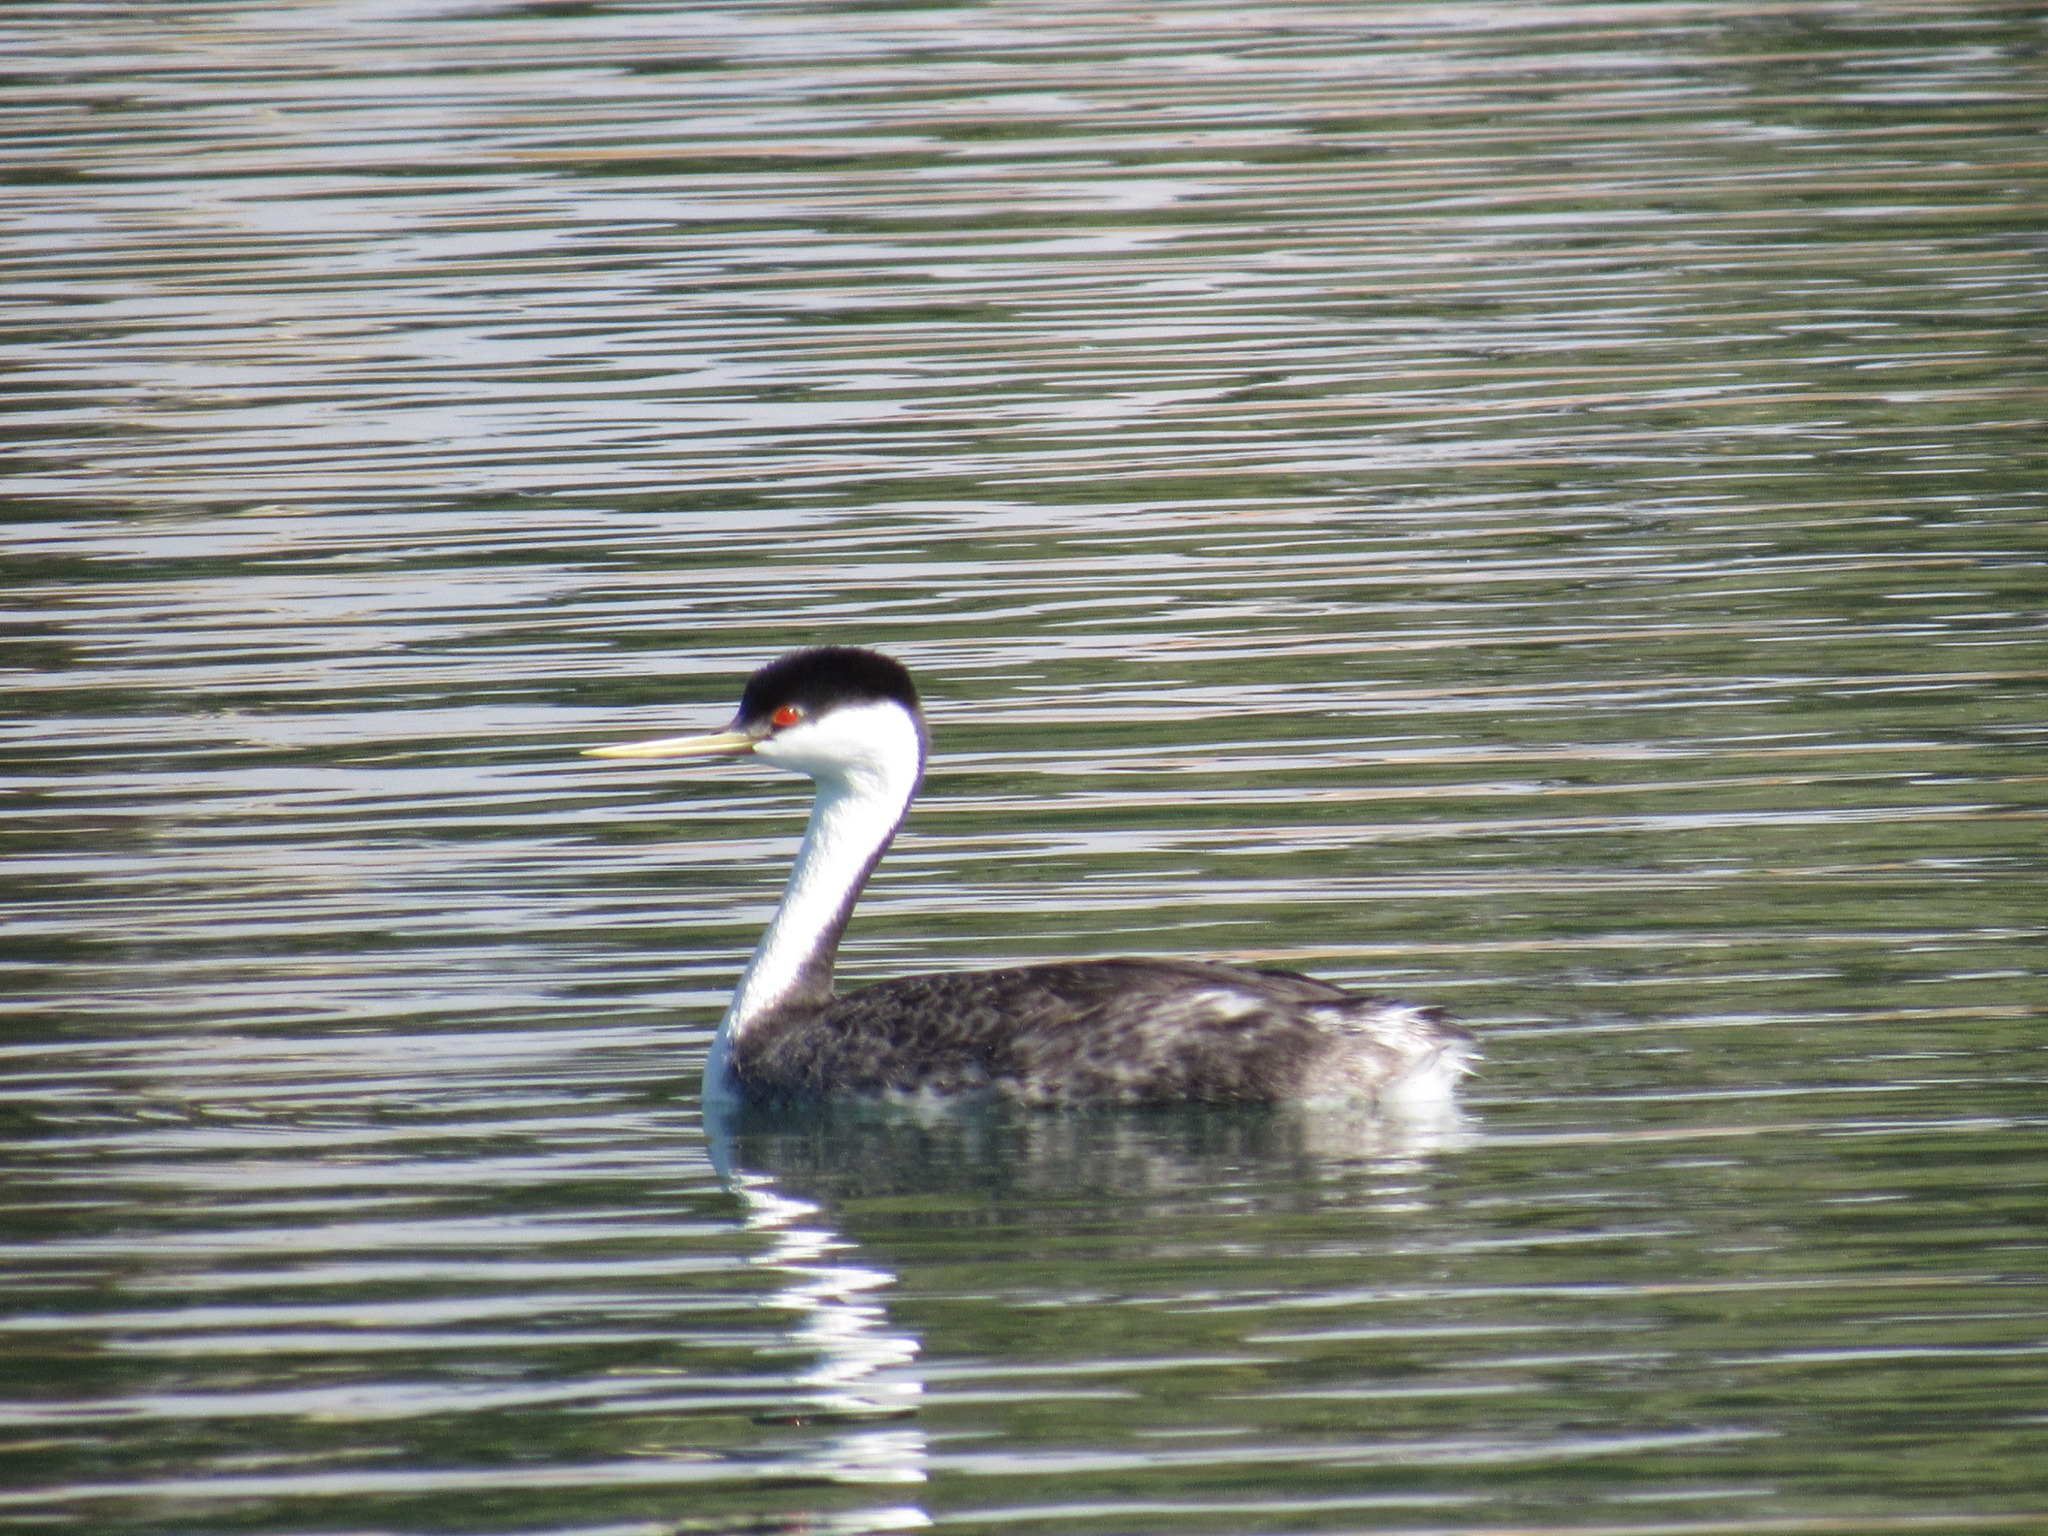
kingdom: Animalia
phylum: Chordata
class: Aves
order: Podicipediformes
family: Podicipedidae
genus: Aechmophorus
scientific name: Aechmophorus occidentalis
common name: Western grebe
